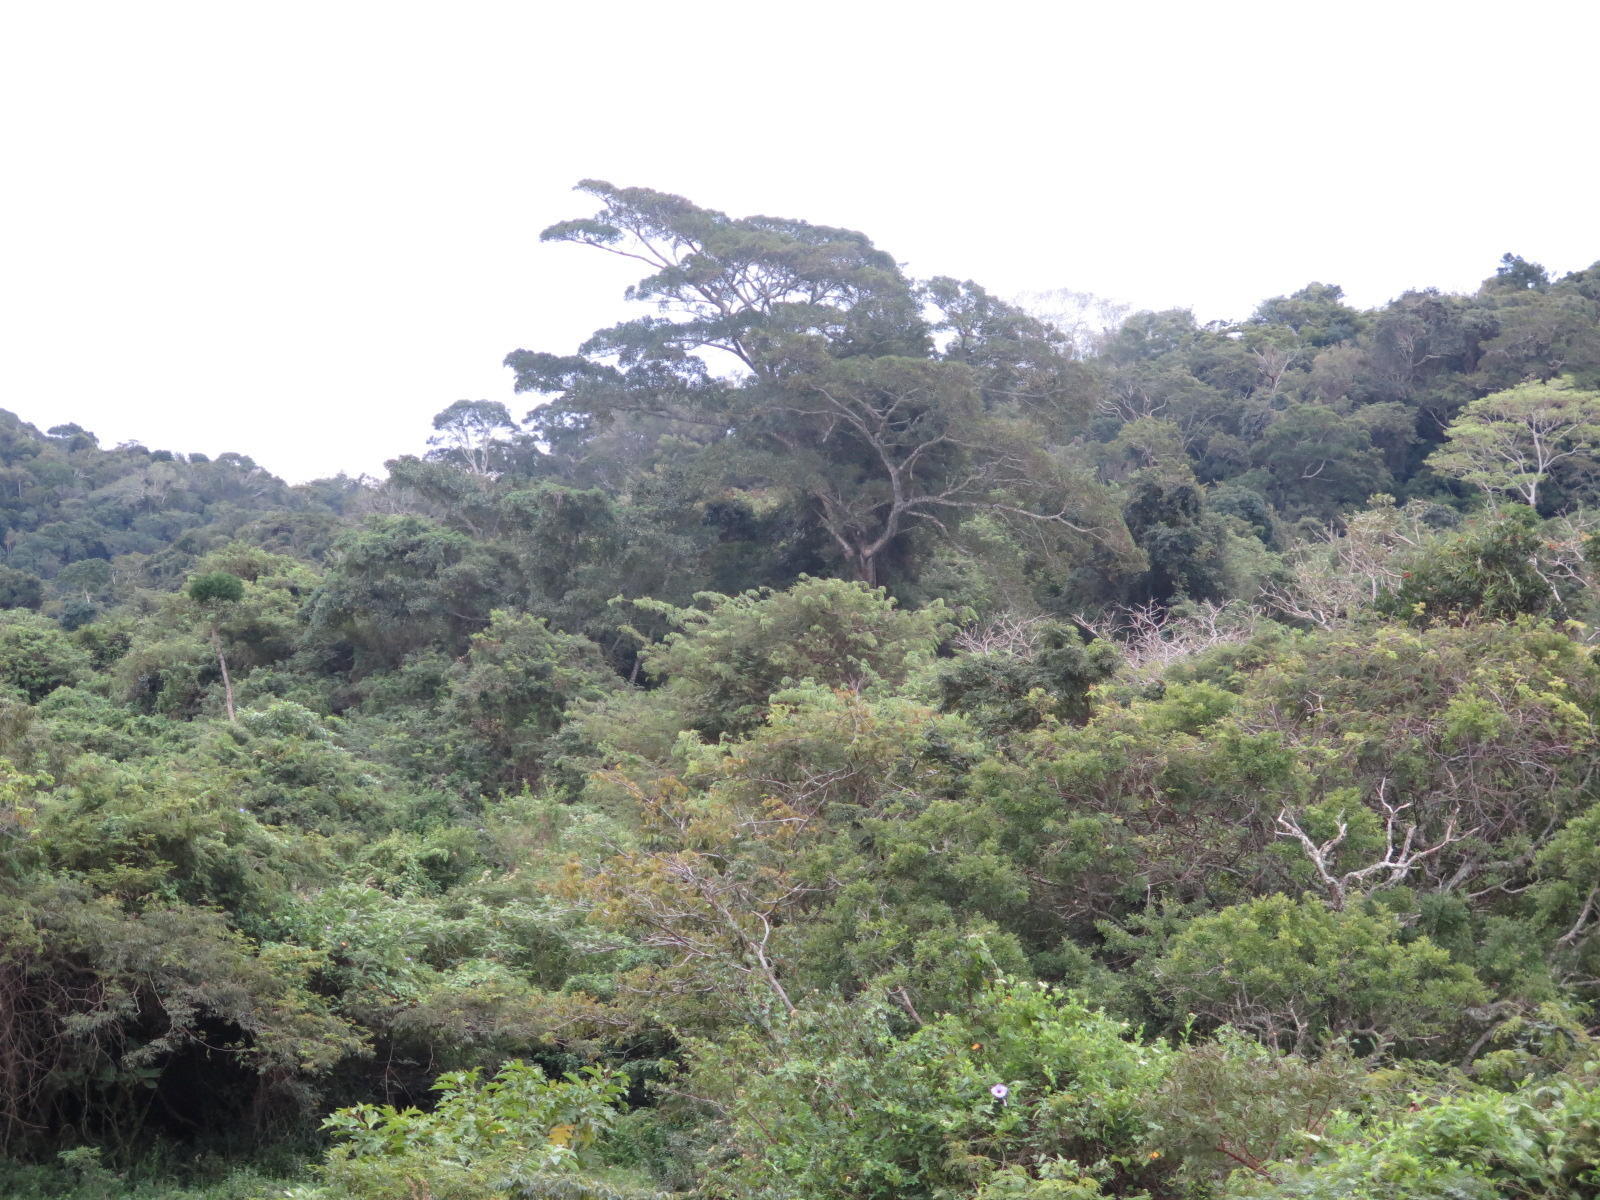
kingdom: Plantae
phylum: Tracheophyta
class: Pinopsida
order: Pinales
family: Podocarpaceae
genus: Afrocarpus
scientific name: Afrocarpus falcatus
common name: Bastard yellowwood
